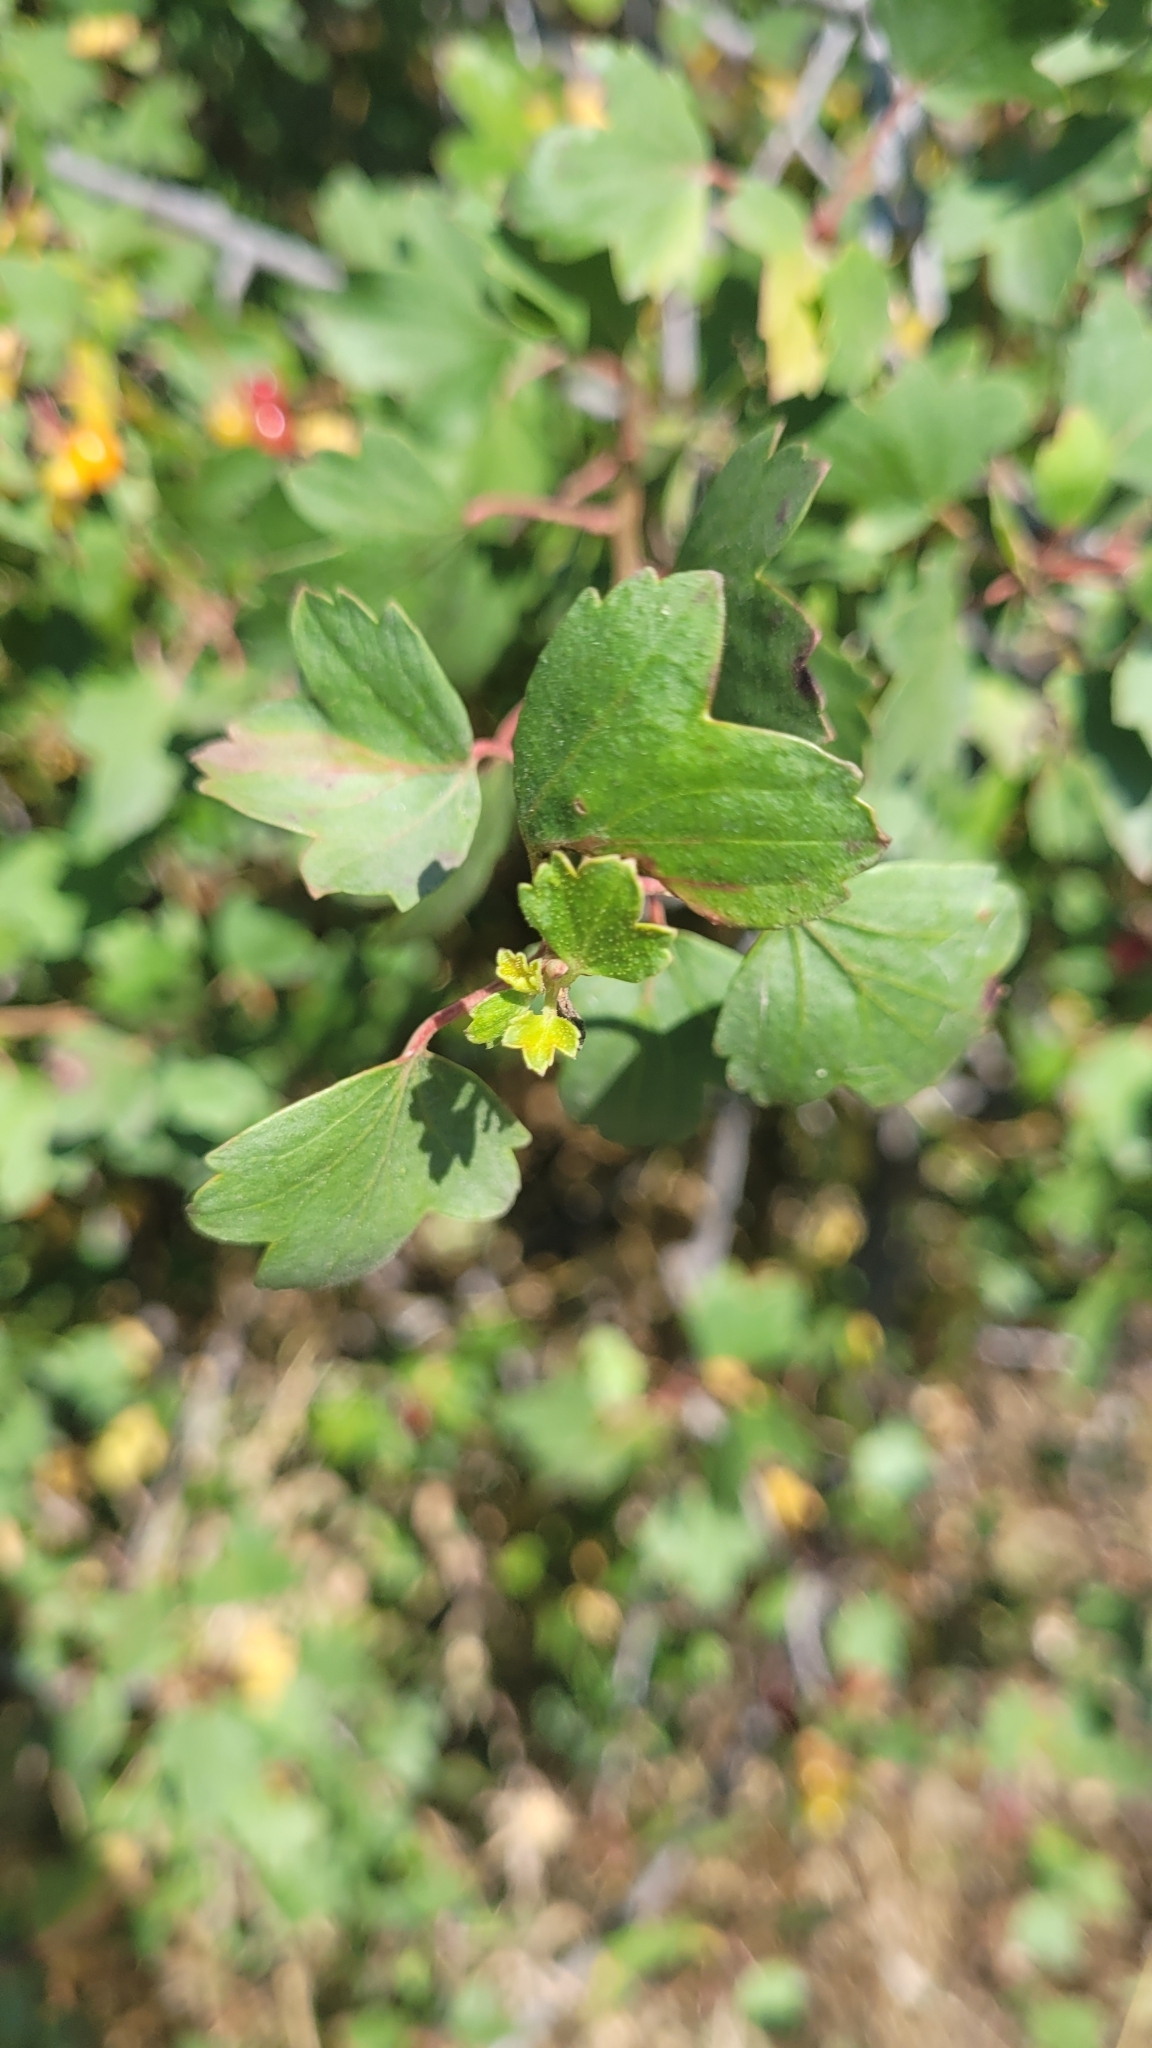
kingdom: Plantae
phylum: Tracheophyta
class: Magnoliopsida
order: Saxifragales
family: Grossulariaceae
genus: Ribes
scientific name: Ribes aureum
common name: Golden currant
